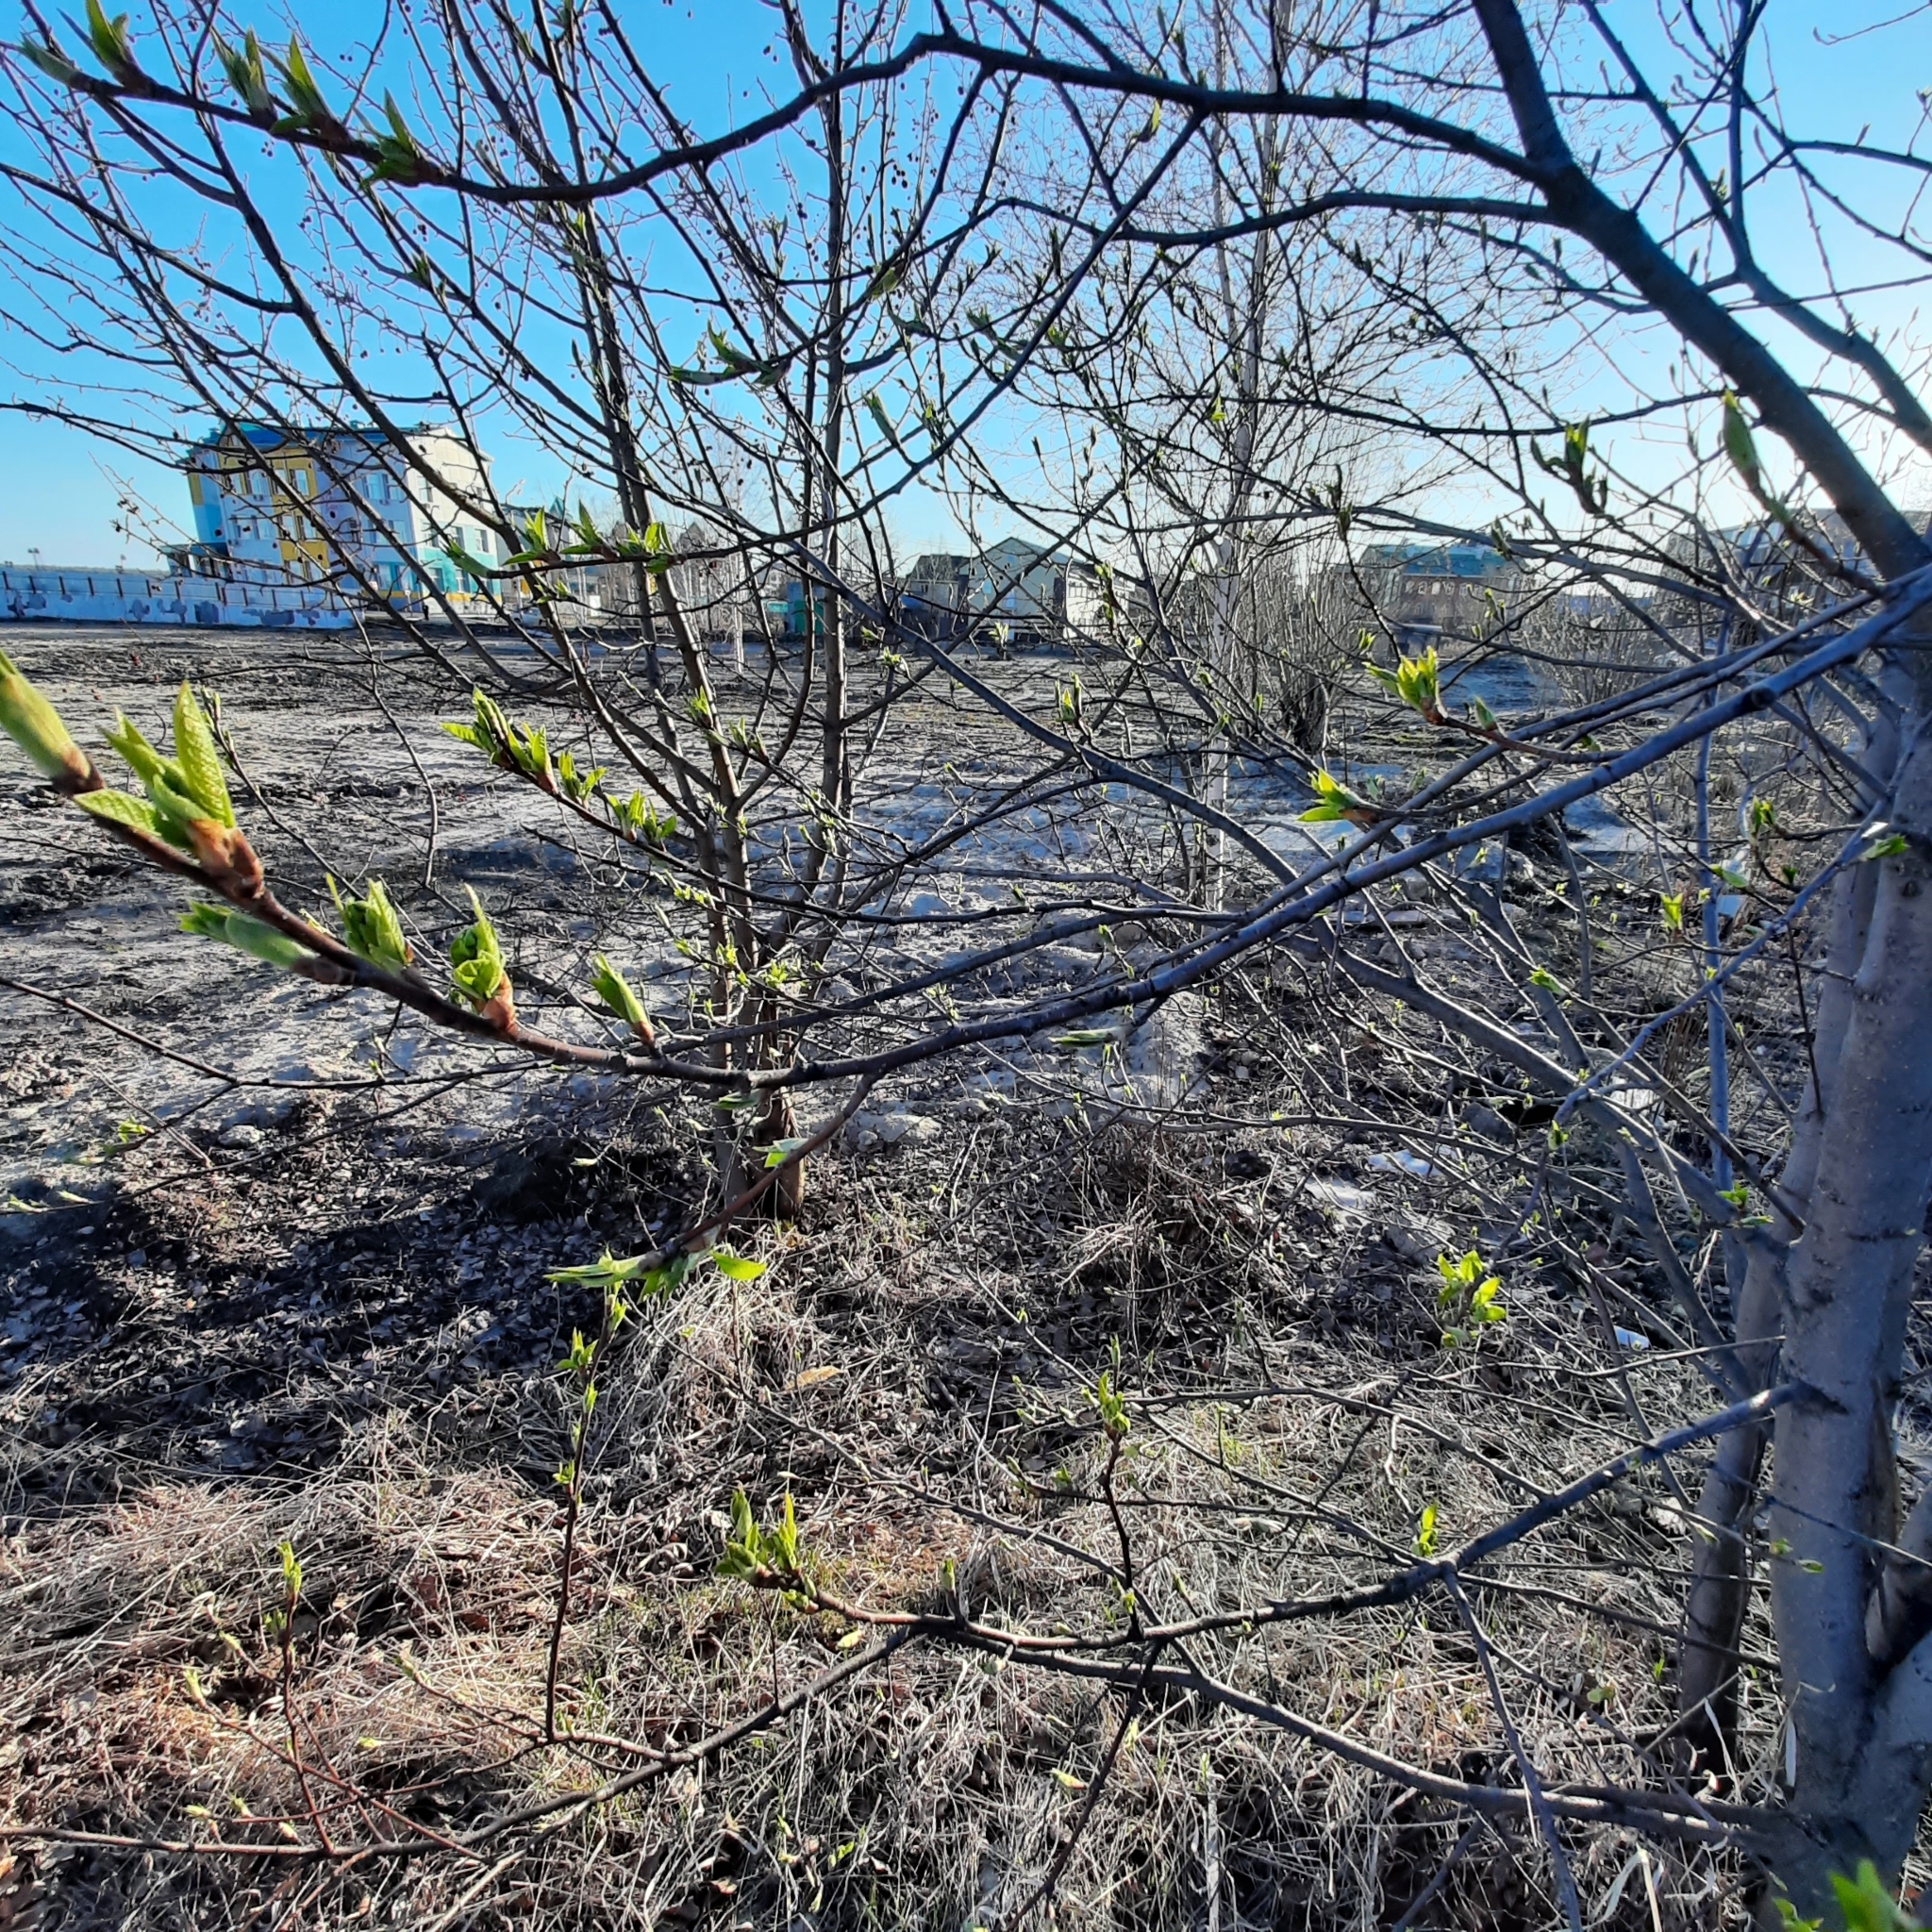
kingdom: Plantae
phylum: Tracheophyta
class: Magnoliopsida
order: Rosales
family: Rosaceae
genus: Prunus
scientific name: Prunus padus
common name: Bird cherry
